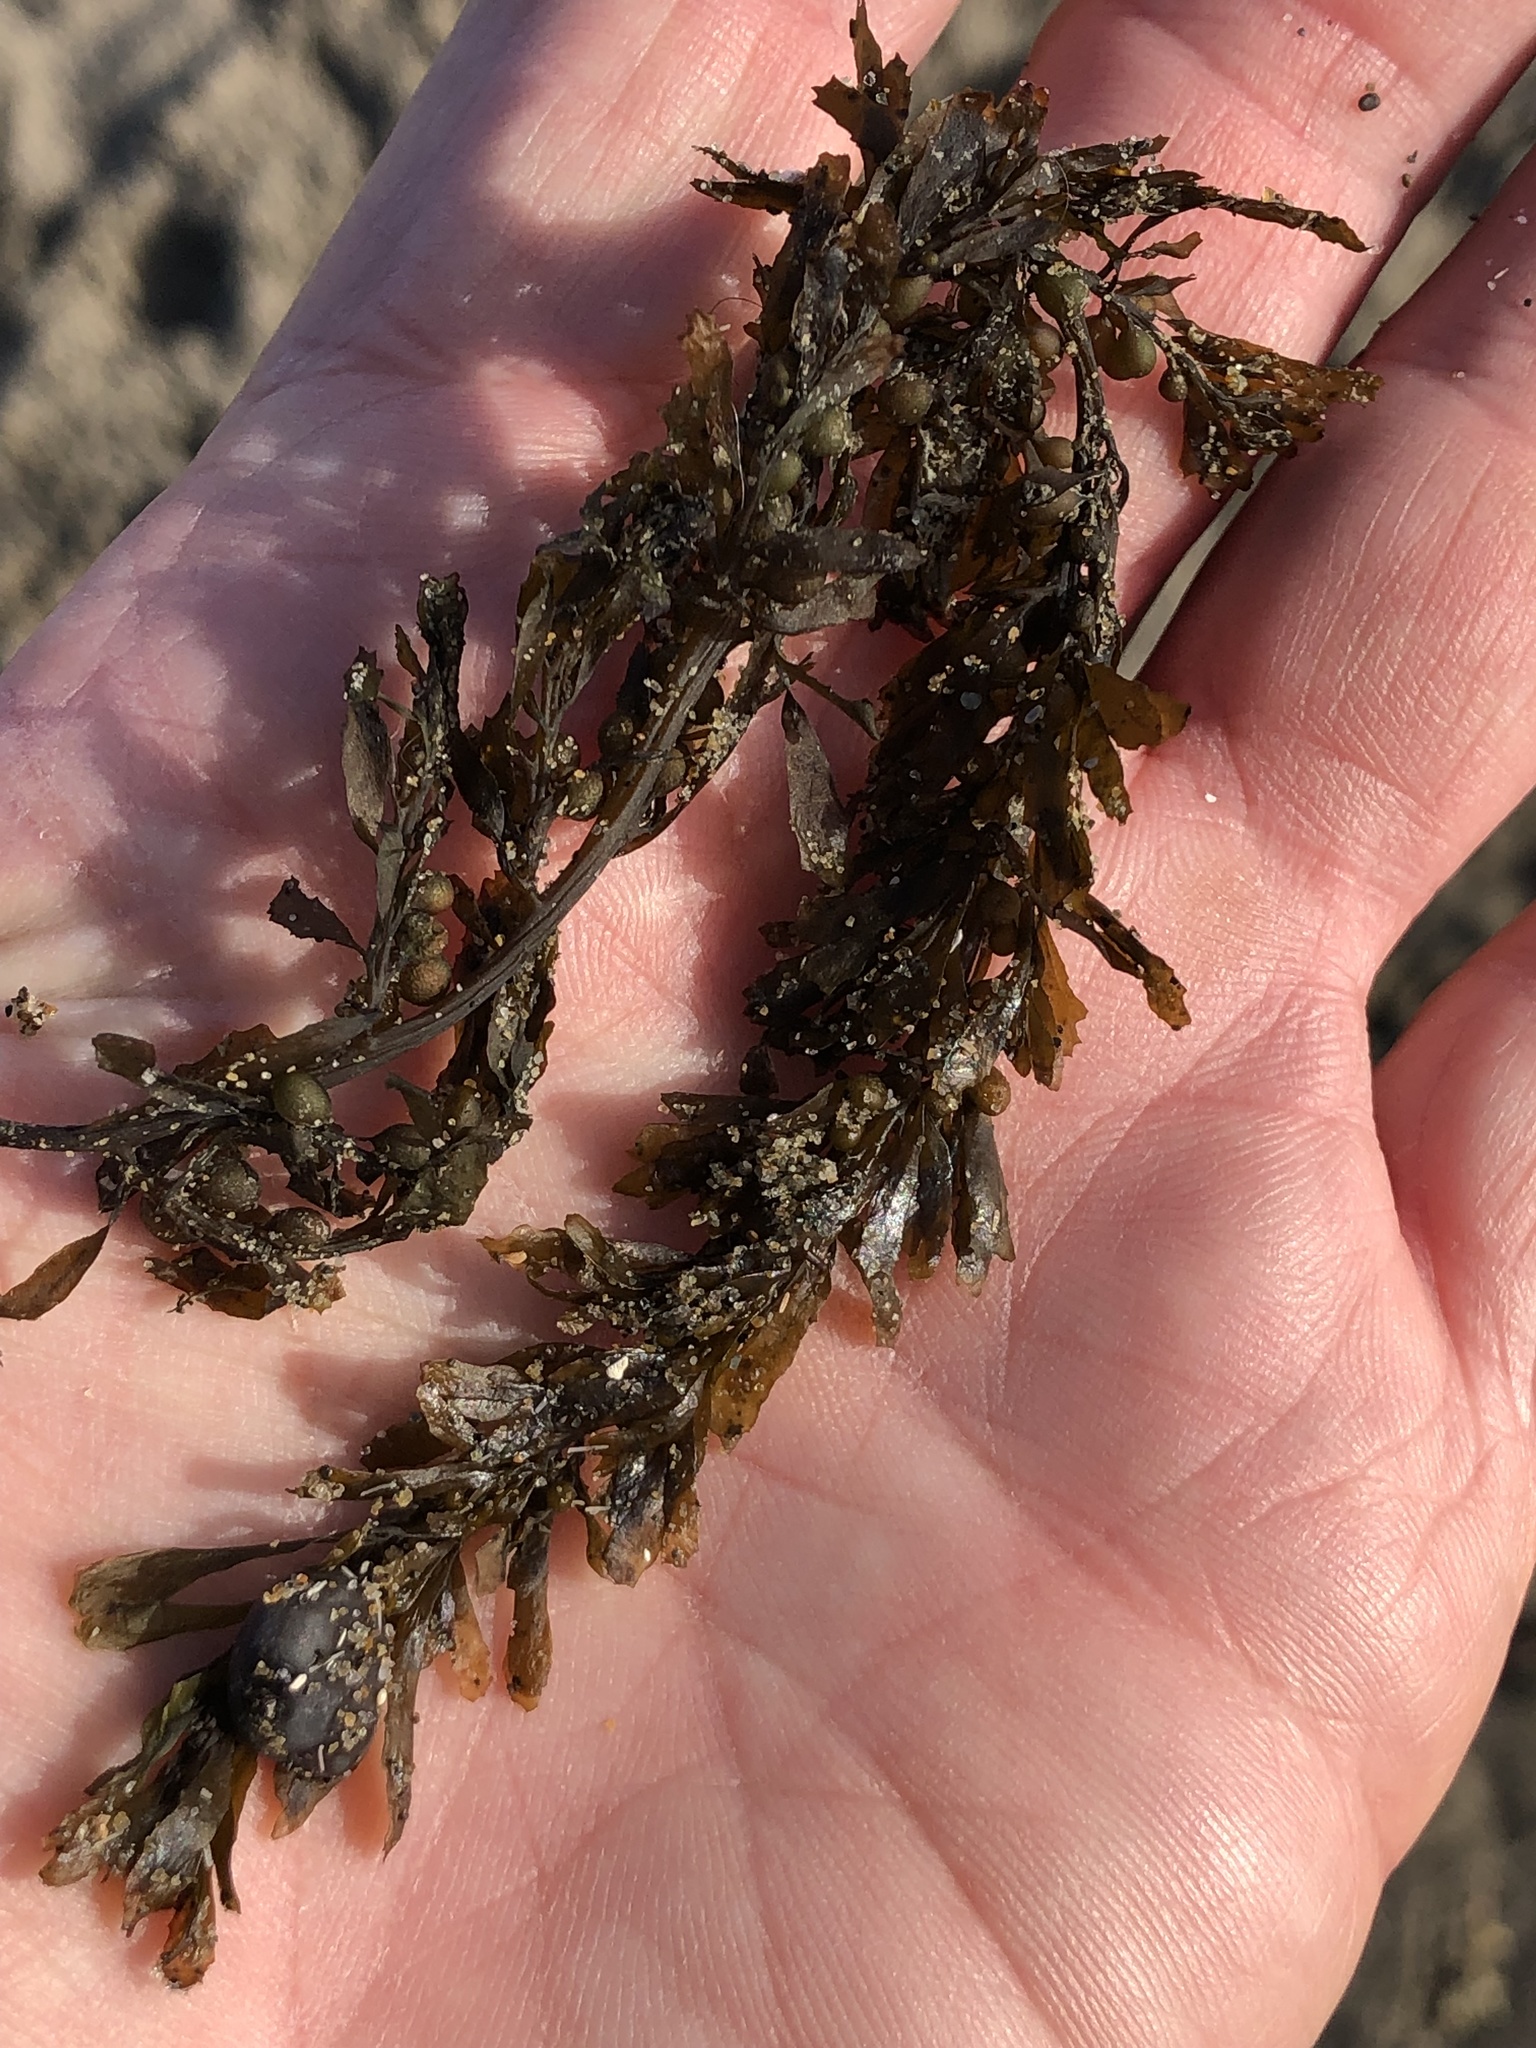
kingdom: Chromista
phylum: Ochrophyta
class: Phaeophyceae
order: Fucales
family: Sargassaceae
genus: Sargassum
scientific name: Sargassum muticum
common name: Japweed
